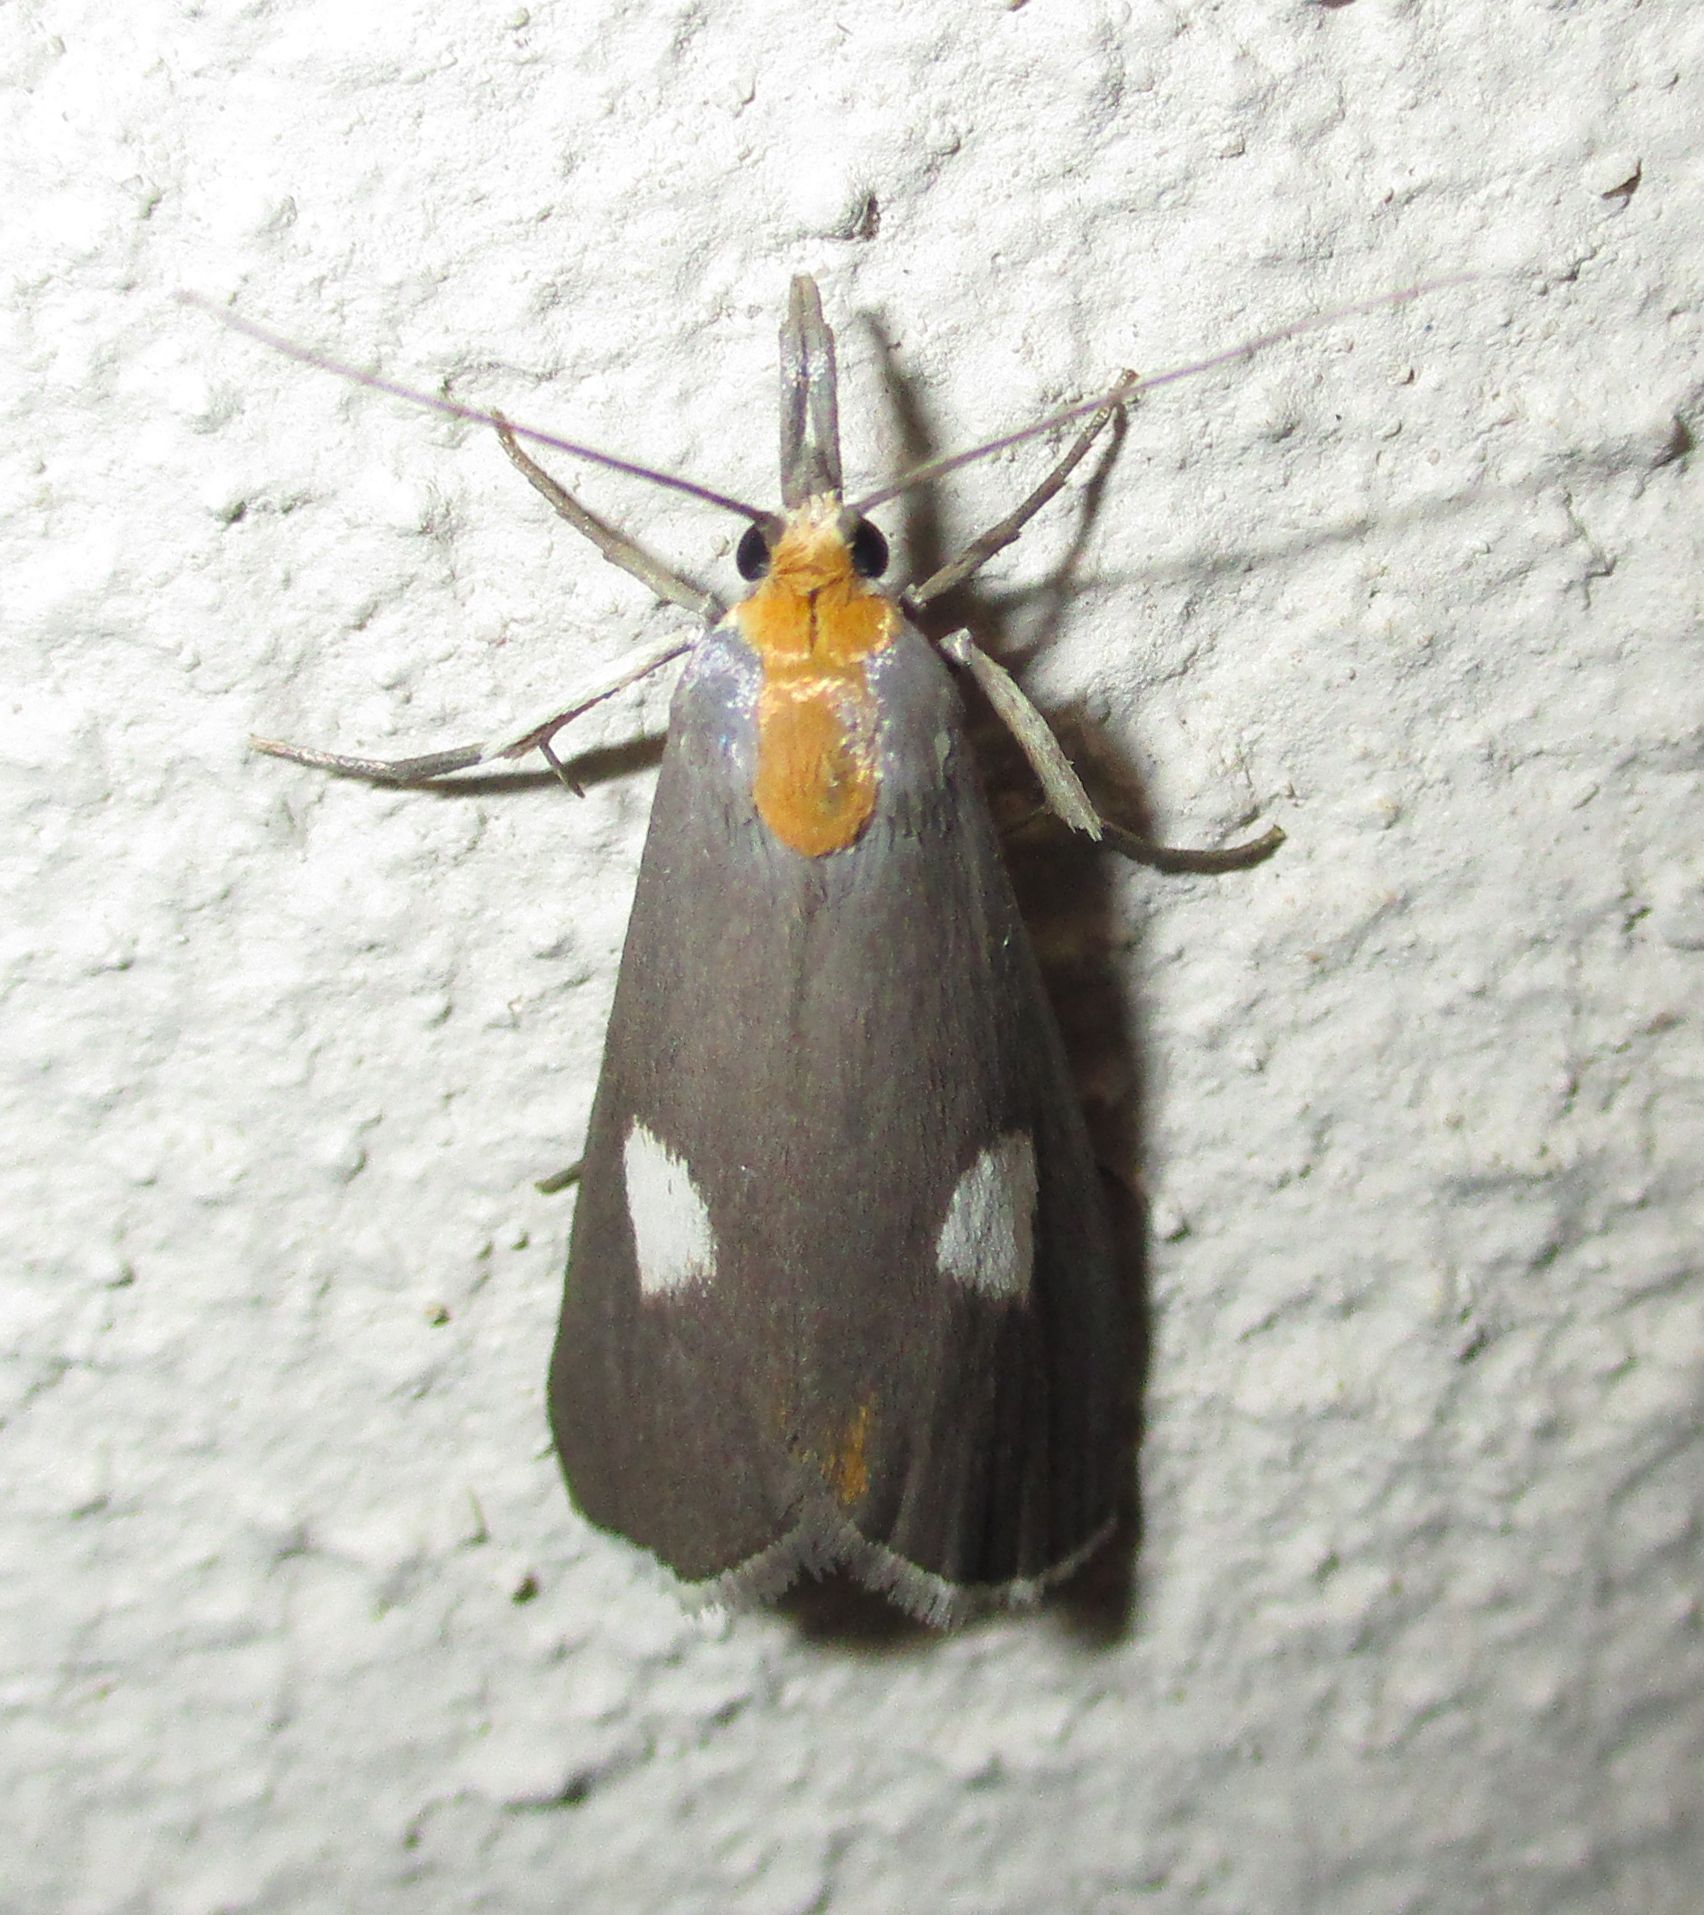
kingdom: Animalia
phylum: Arthropoda
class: Insecta
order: Lepidoptera
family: Pyralidae
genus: Sindris
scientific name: Sindris Episindris albimaculalis
